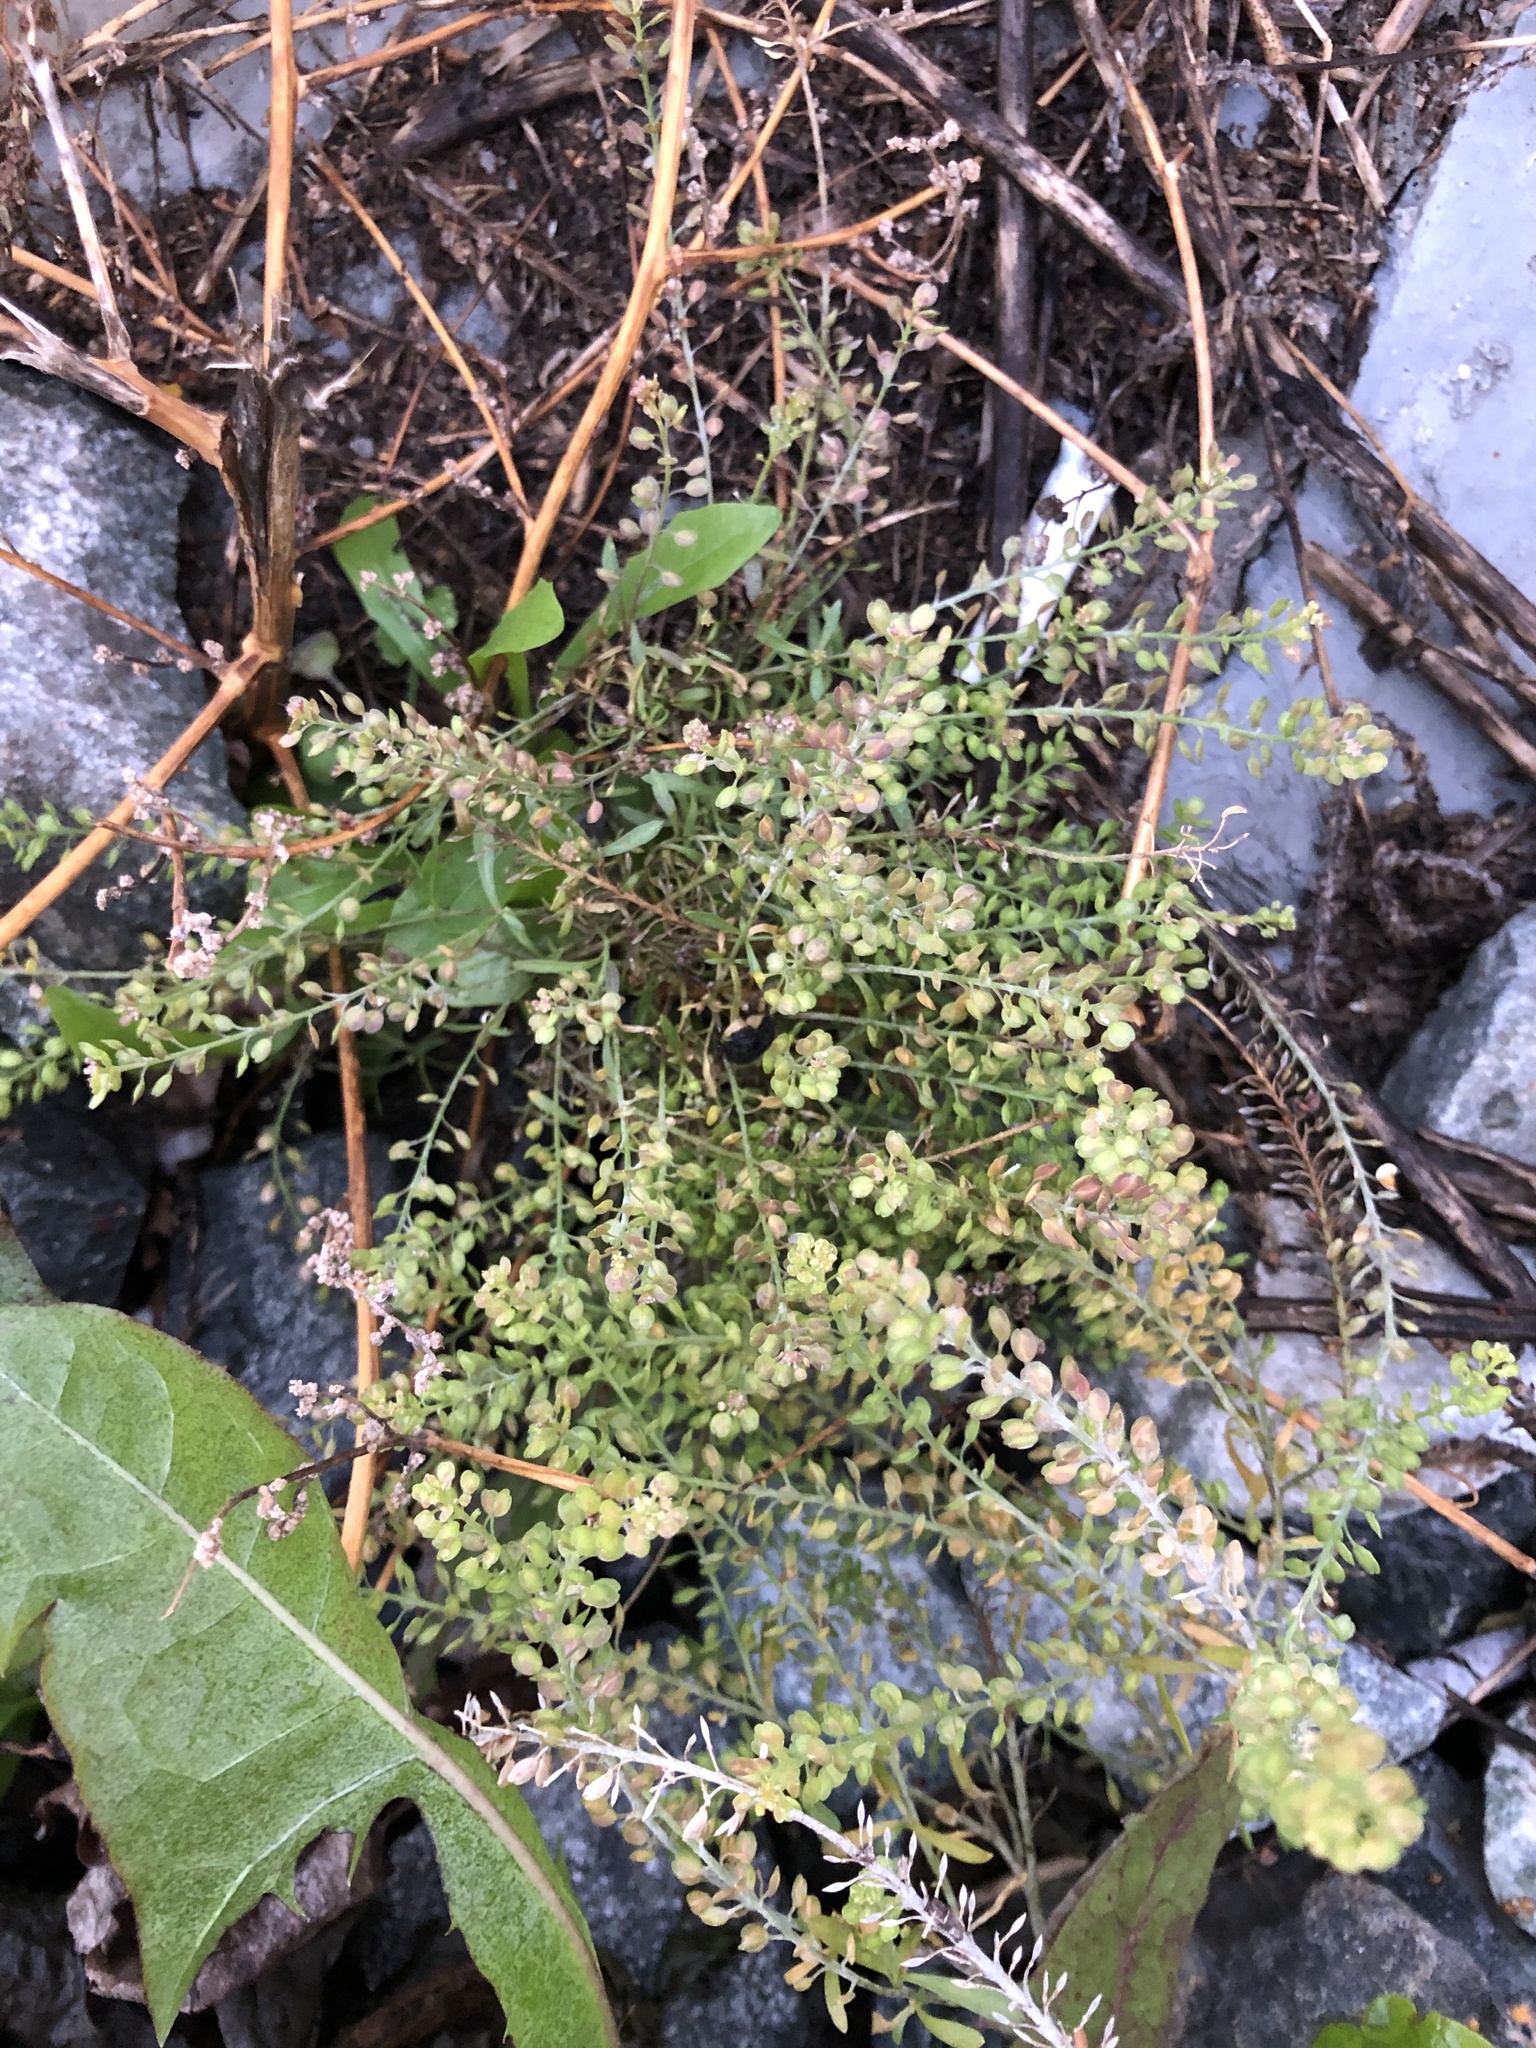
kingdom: Plantae
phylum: Tracheophyta
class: Magnoliopsida
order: Brassicales
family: Brassicaceae
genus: Lepidium
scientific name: Lepidium ruderale
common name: Narrow-leaved pepperwort
